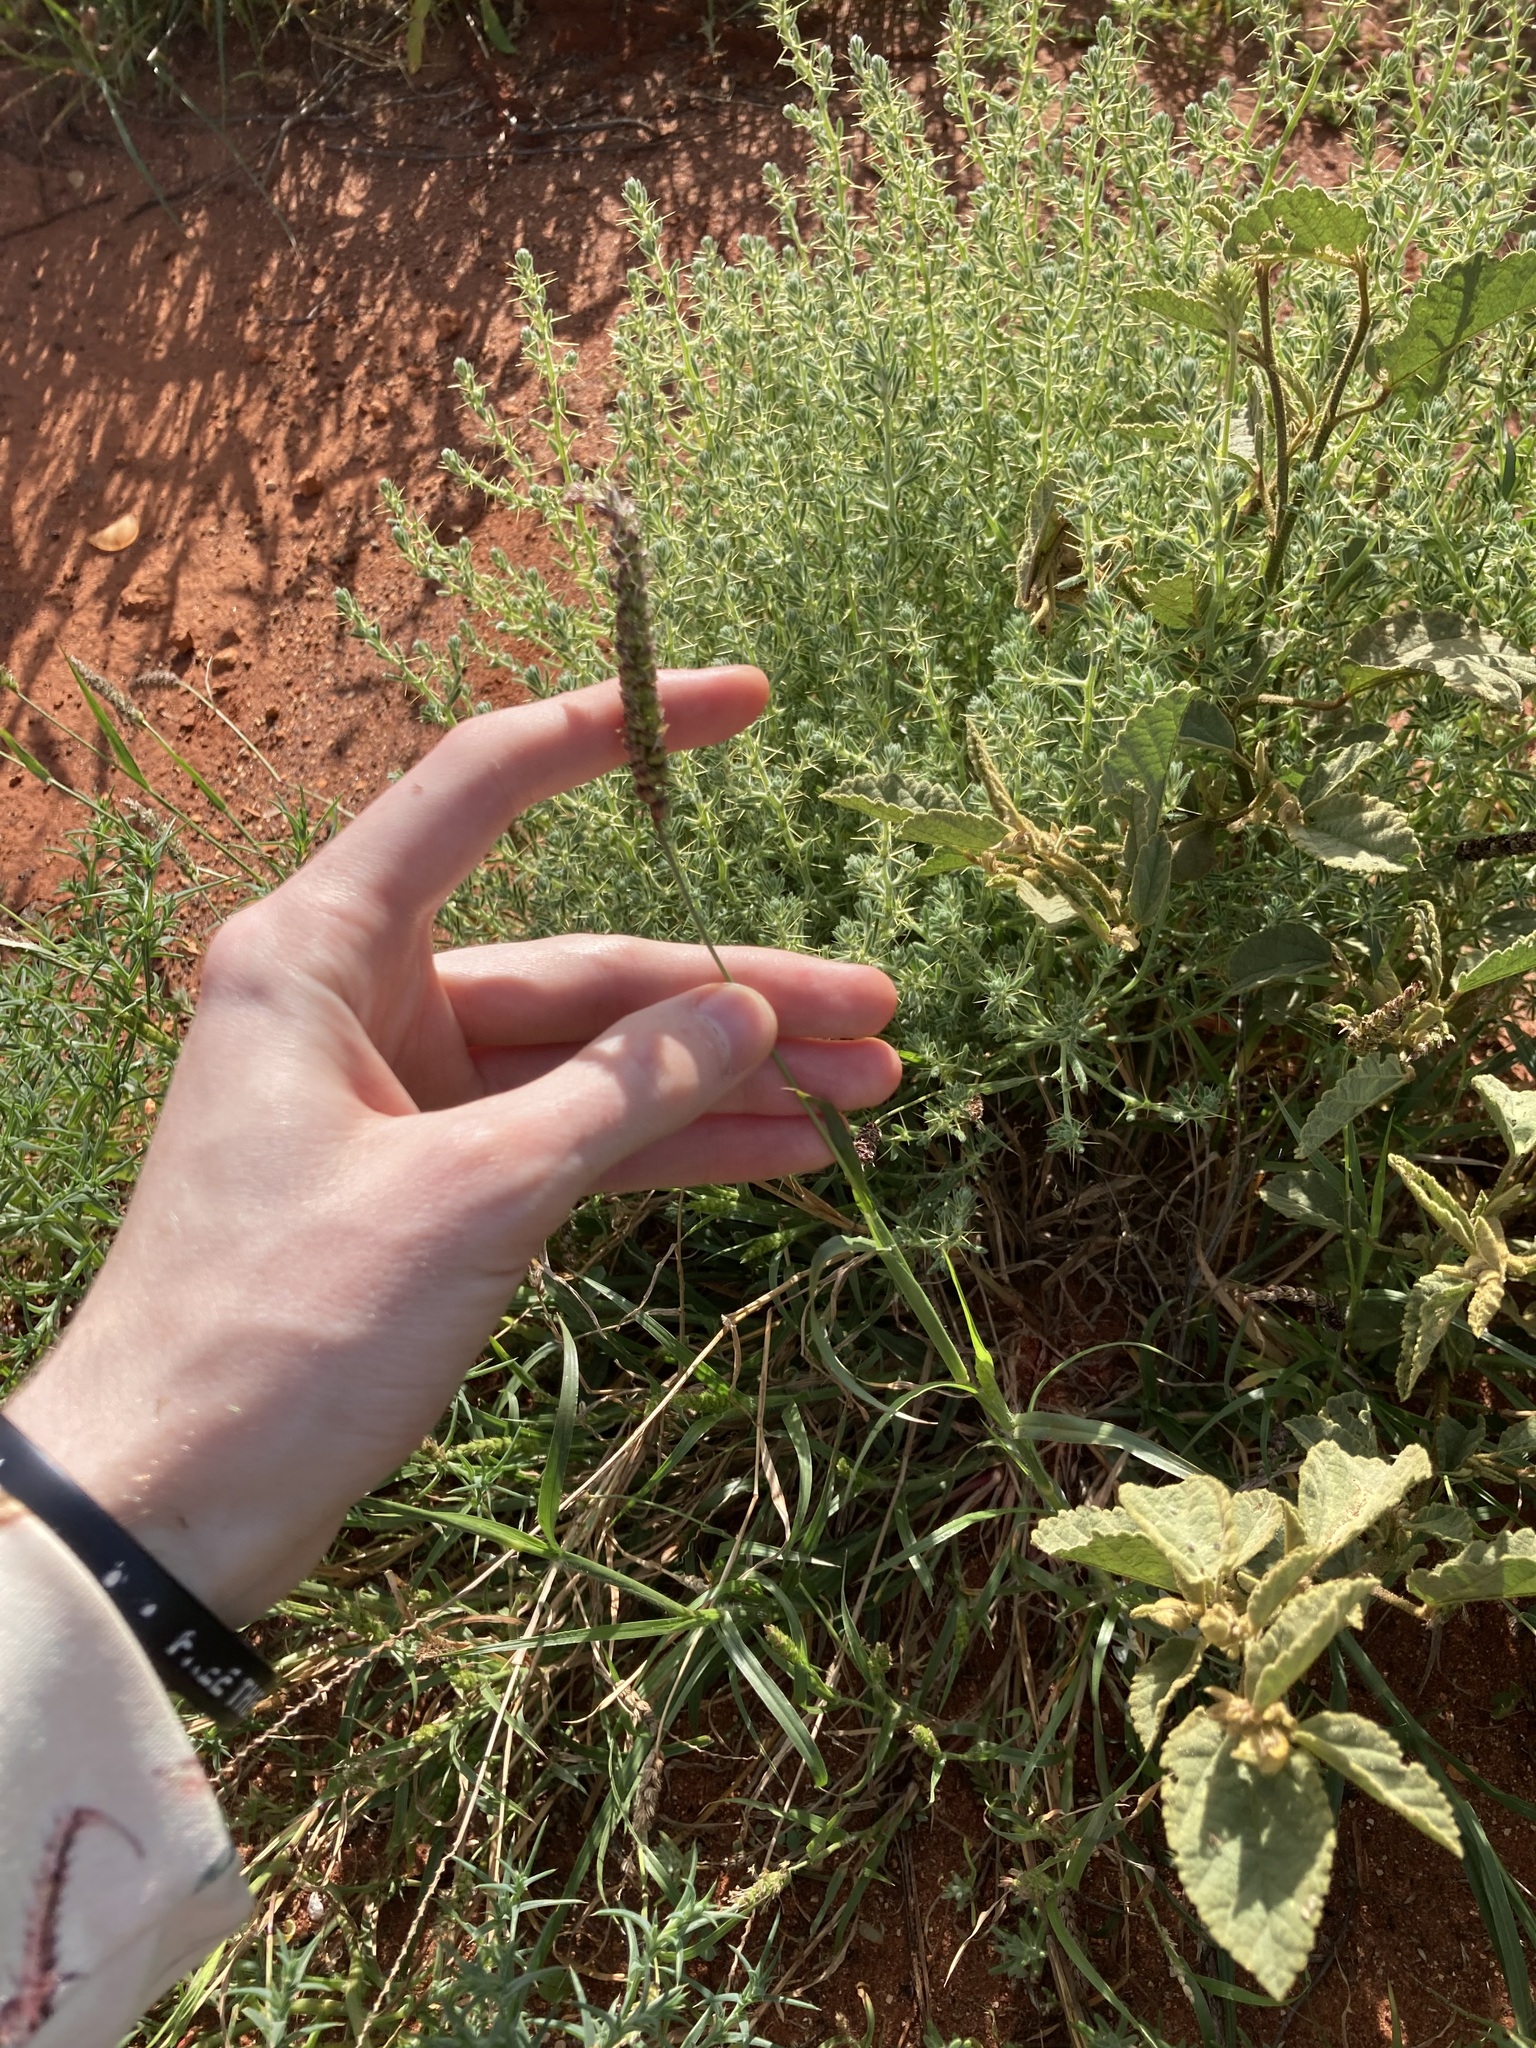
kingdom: Plantae
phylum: Tracheophyta
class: Liliopsida
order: Poales
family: Poaceae
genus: Cenchrus
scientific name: Cenchrus setigerus
